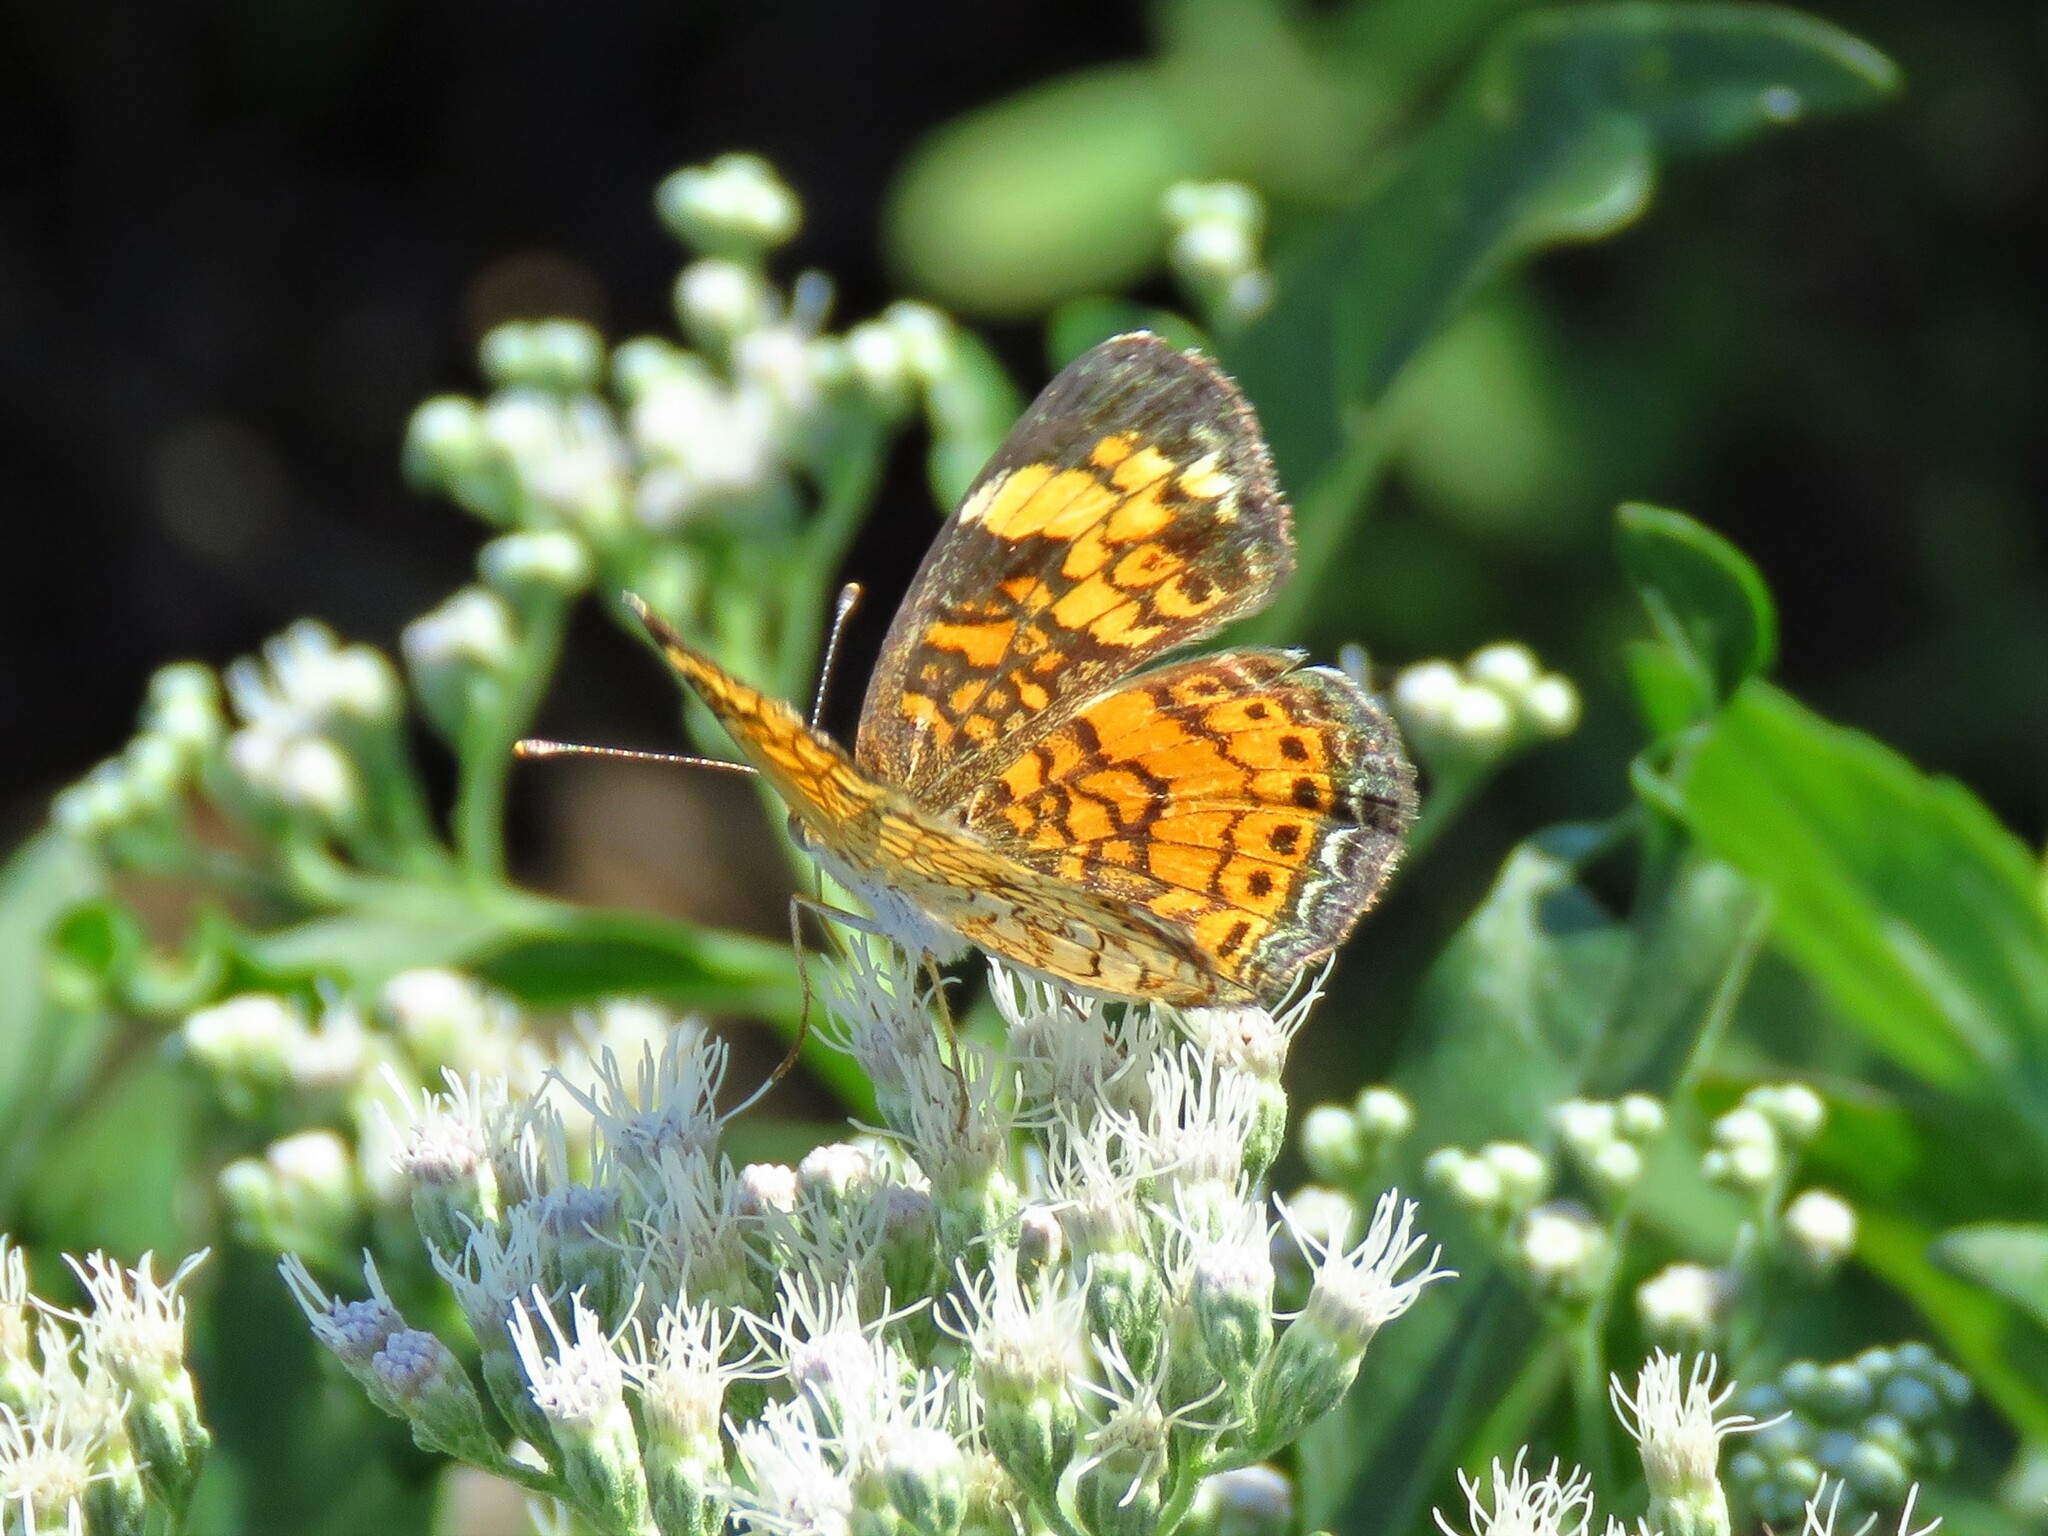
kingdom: Animalia
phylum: Arthropoda
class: Insecta
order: Lepidoptera
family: Nymphalidae
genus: Phyciodes
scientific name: Phyciodes phaon
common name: Phaon crescent
